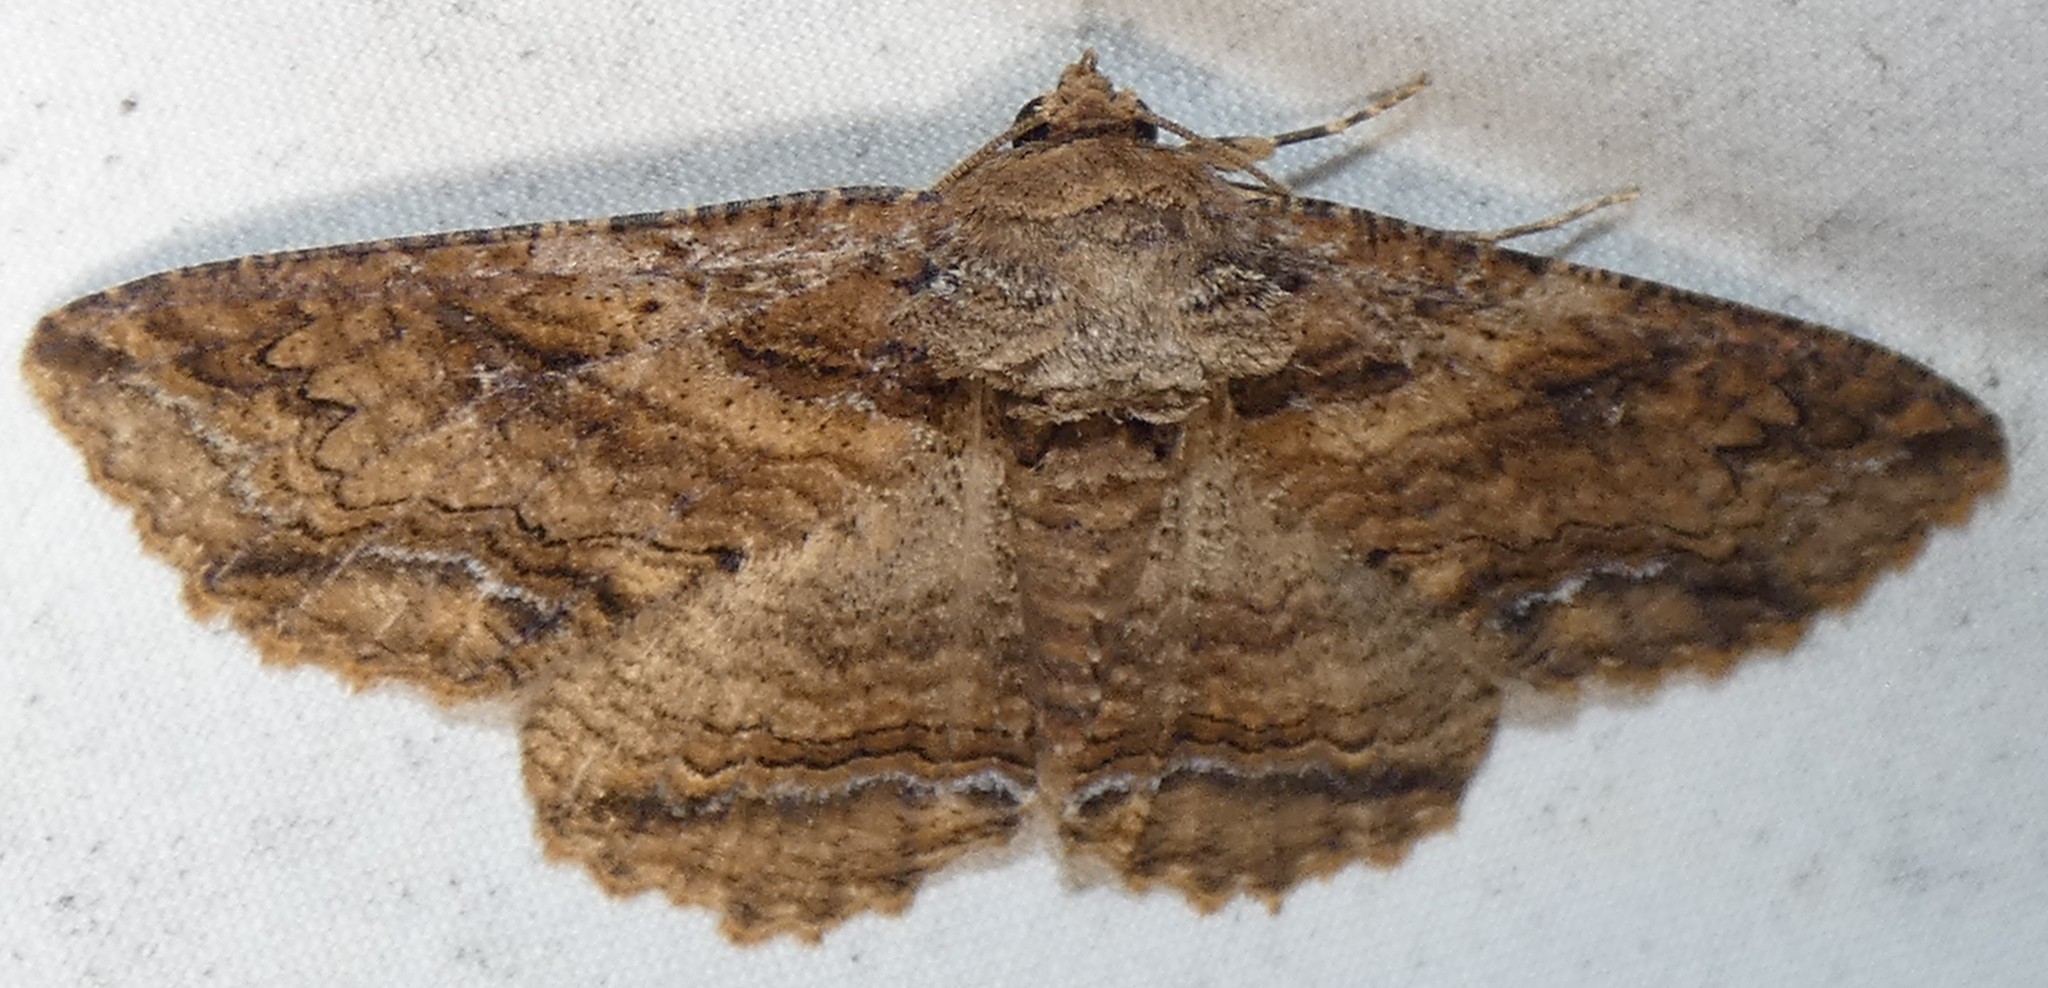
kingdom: Animalia
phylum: Arthropoda
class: Insecta
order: Lepidoptera
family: Erebidae
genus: Zale
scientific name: Zale lunata
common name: Lunate zale moth
